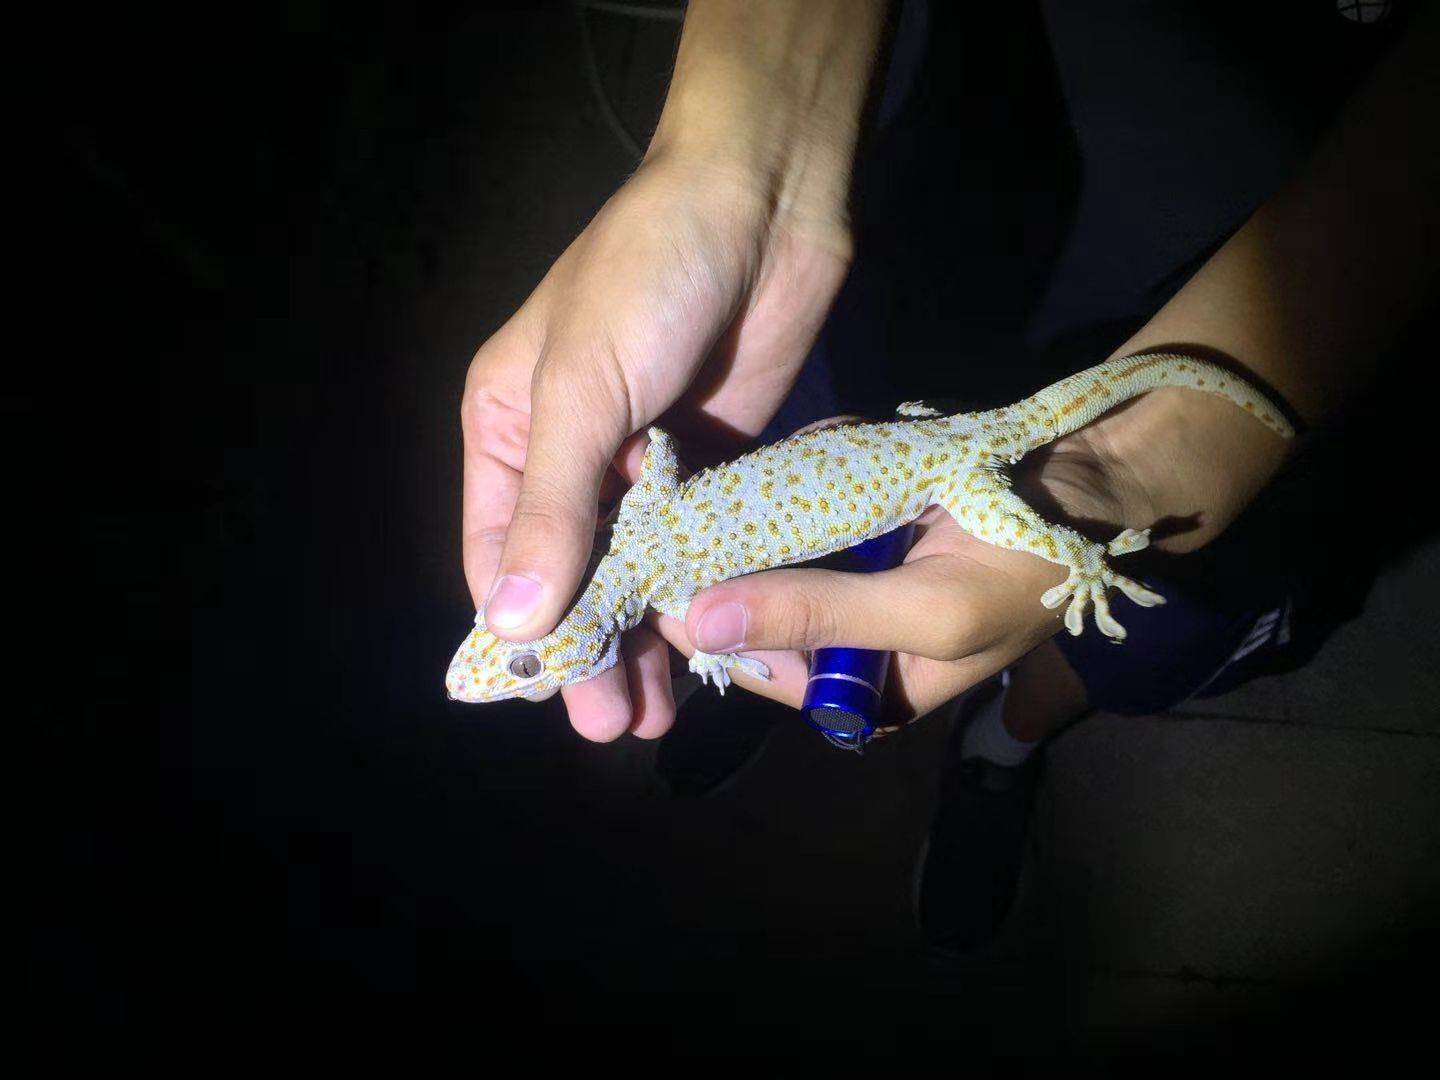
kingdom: Animalia
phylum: Chordata
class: Squamata
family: Gekkonidae
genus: Gekko
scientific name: Gekko reevesii
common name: Reeves’ tokay gecko
